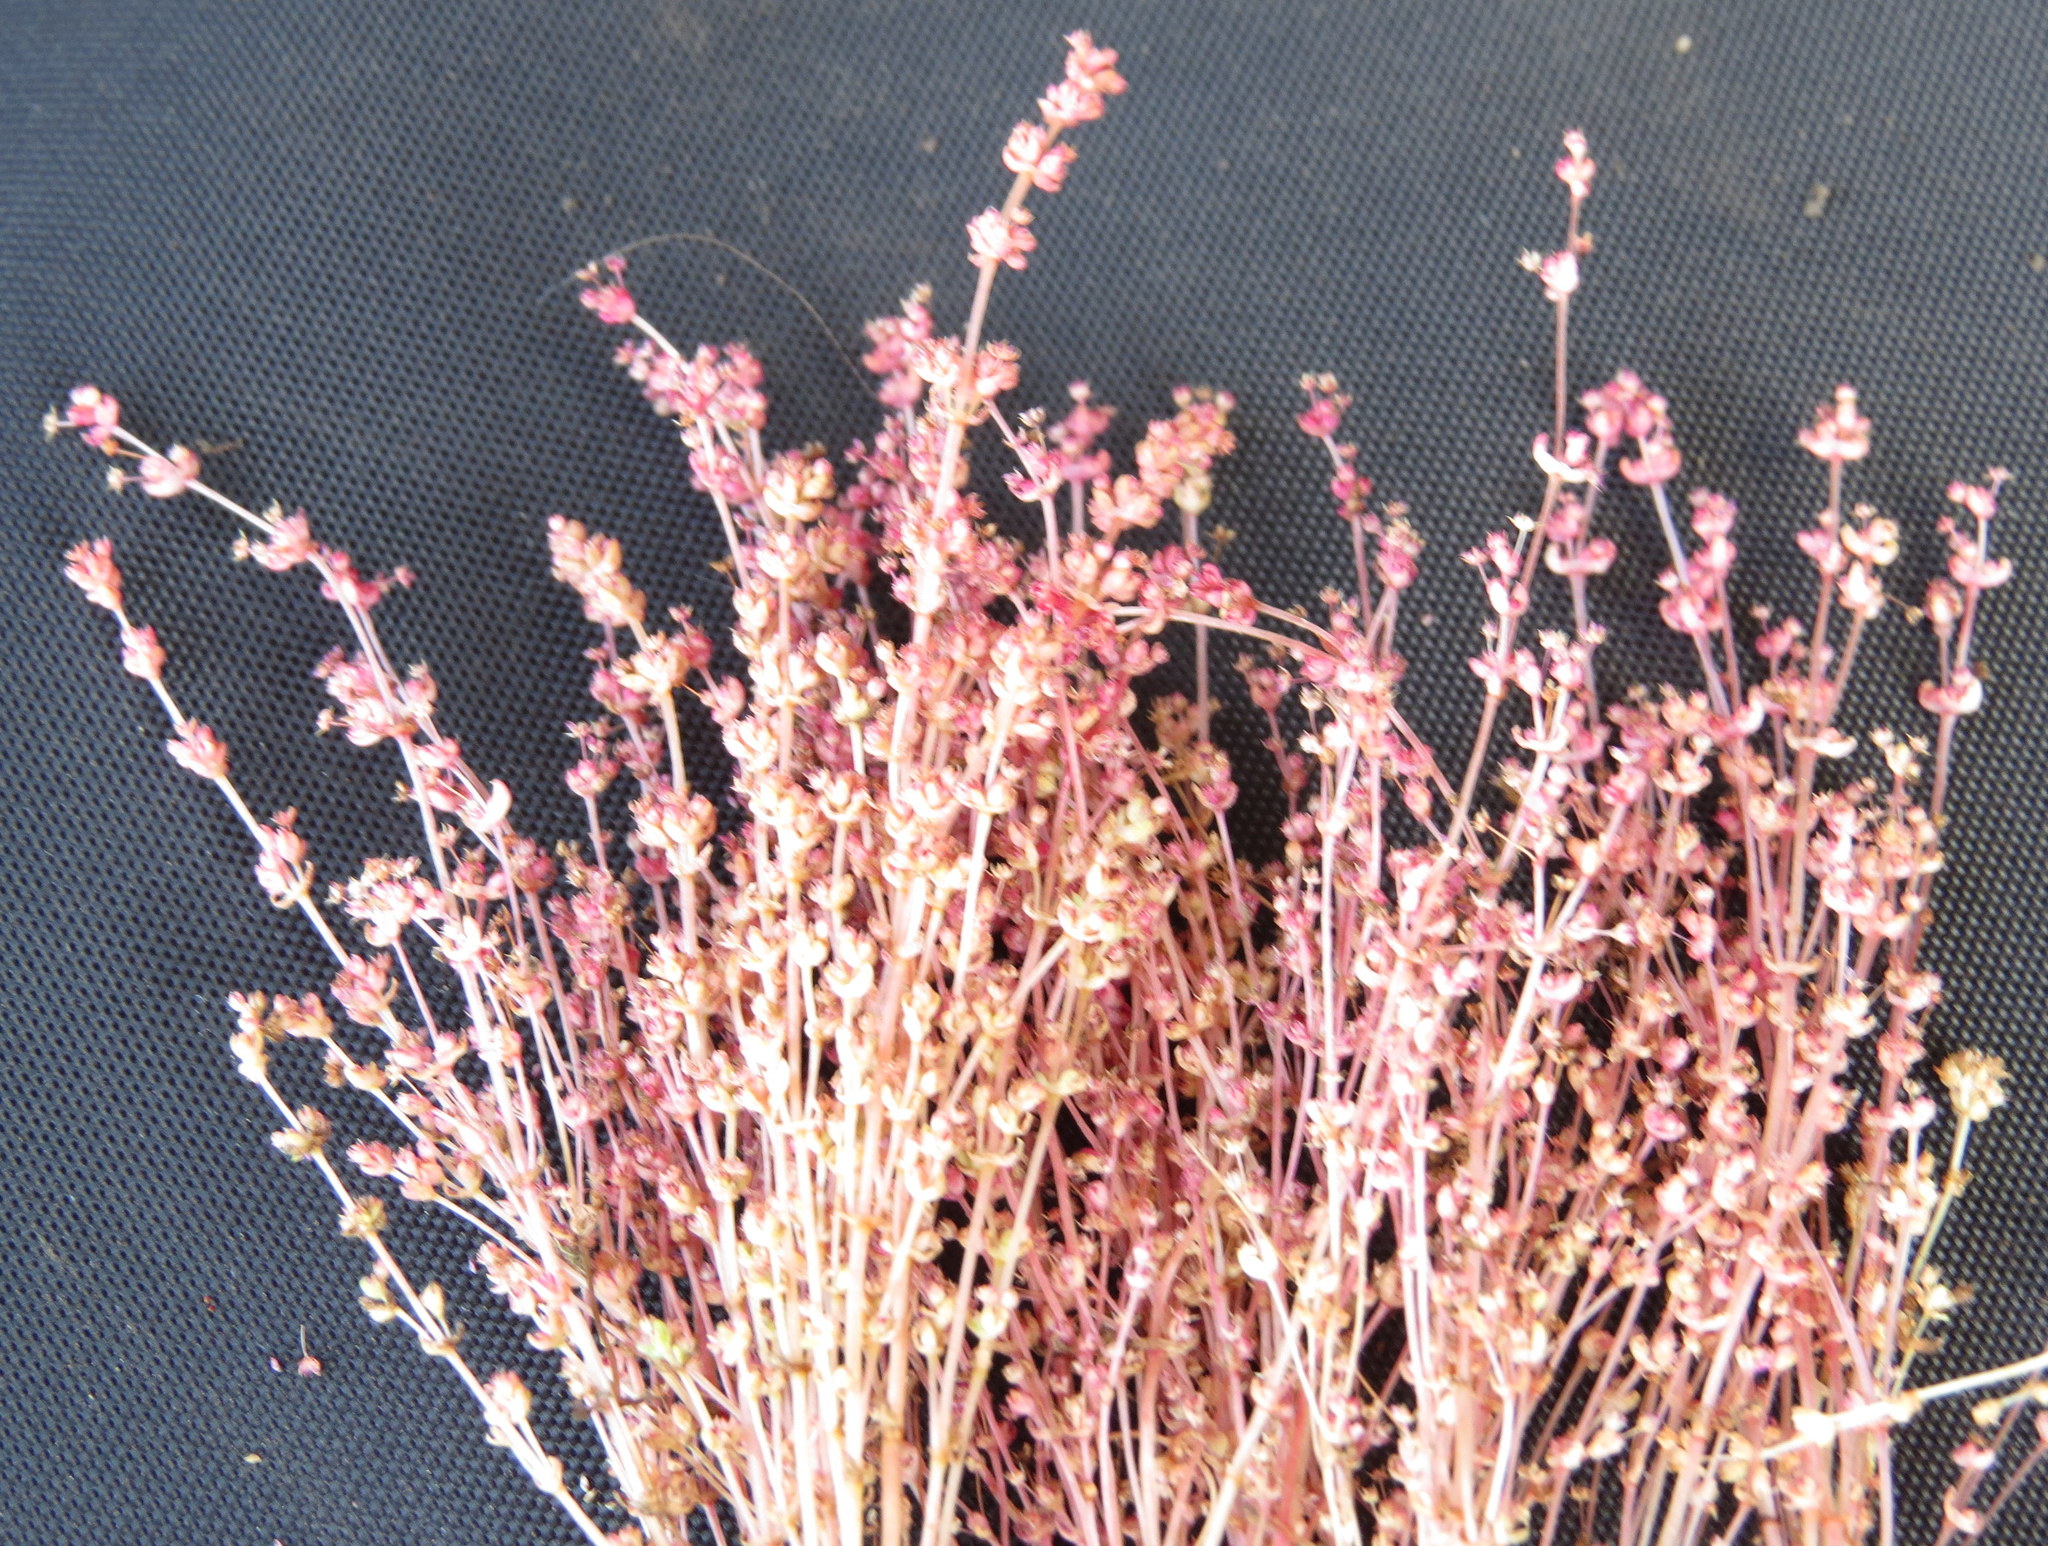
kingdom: Plantae
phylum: Tracheophyta
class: Magnoliopsida
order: Saxifragales
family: Crassulaceae
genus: Crassula
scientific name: Crassula connata
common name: Erect pygmyweed
